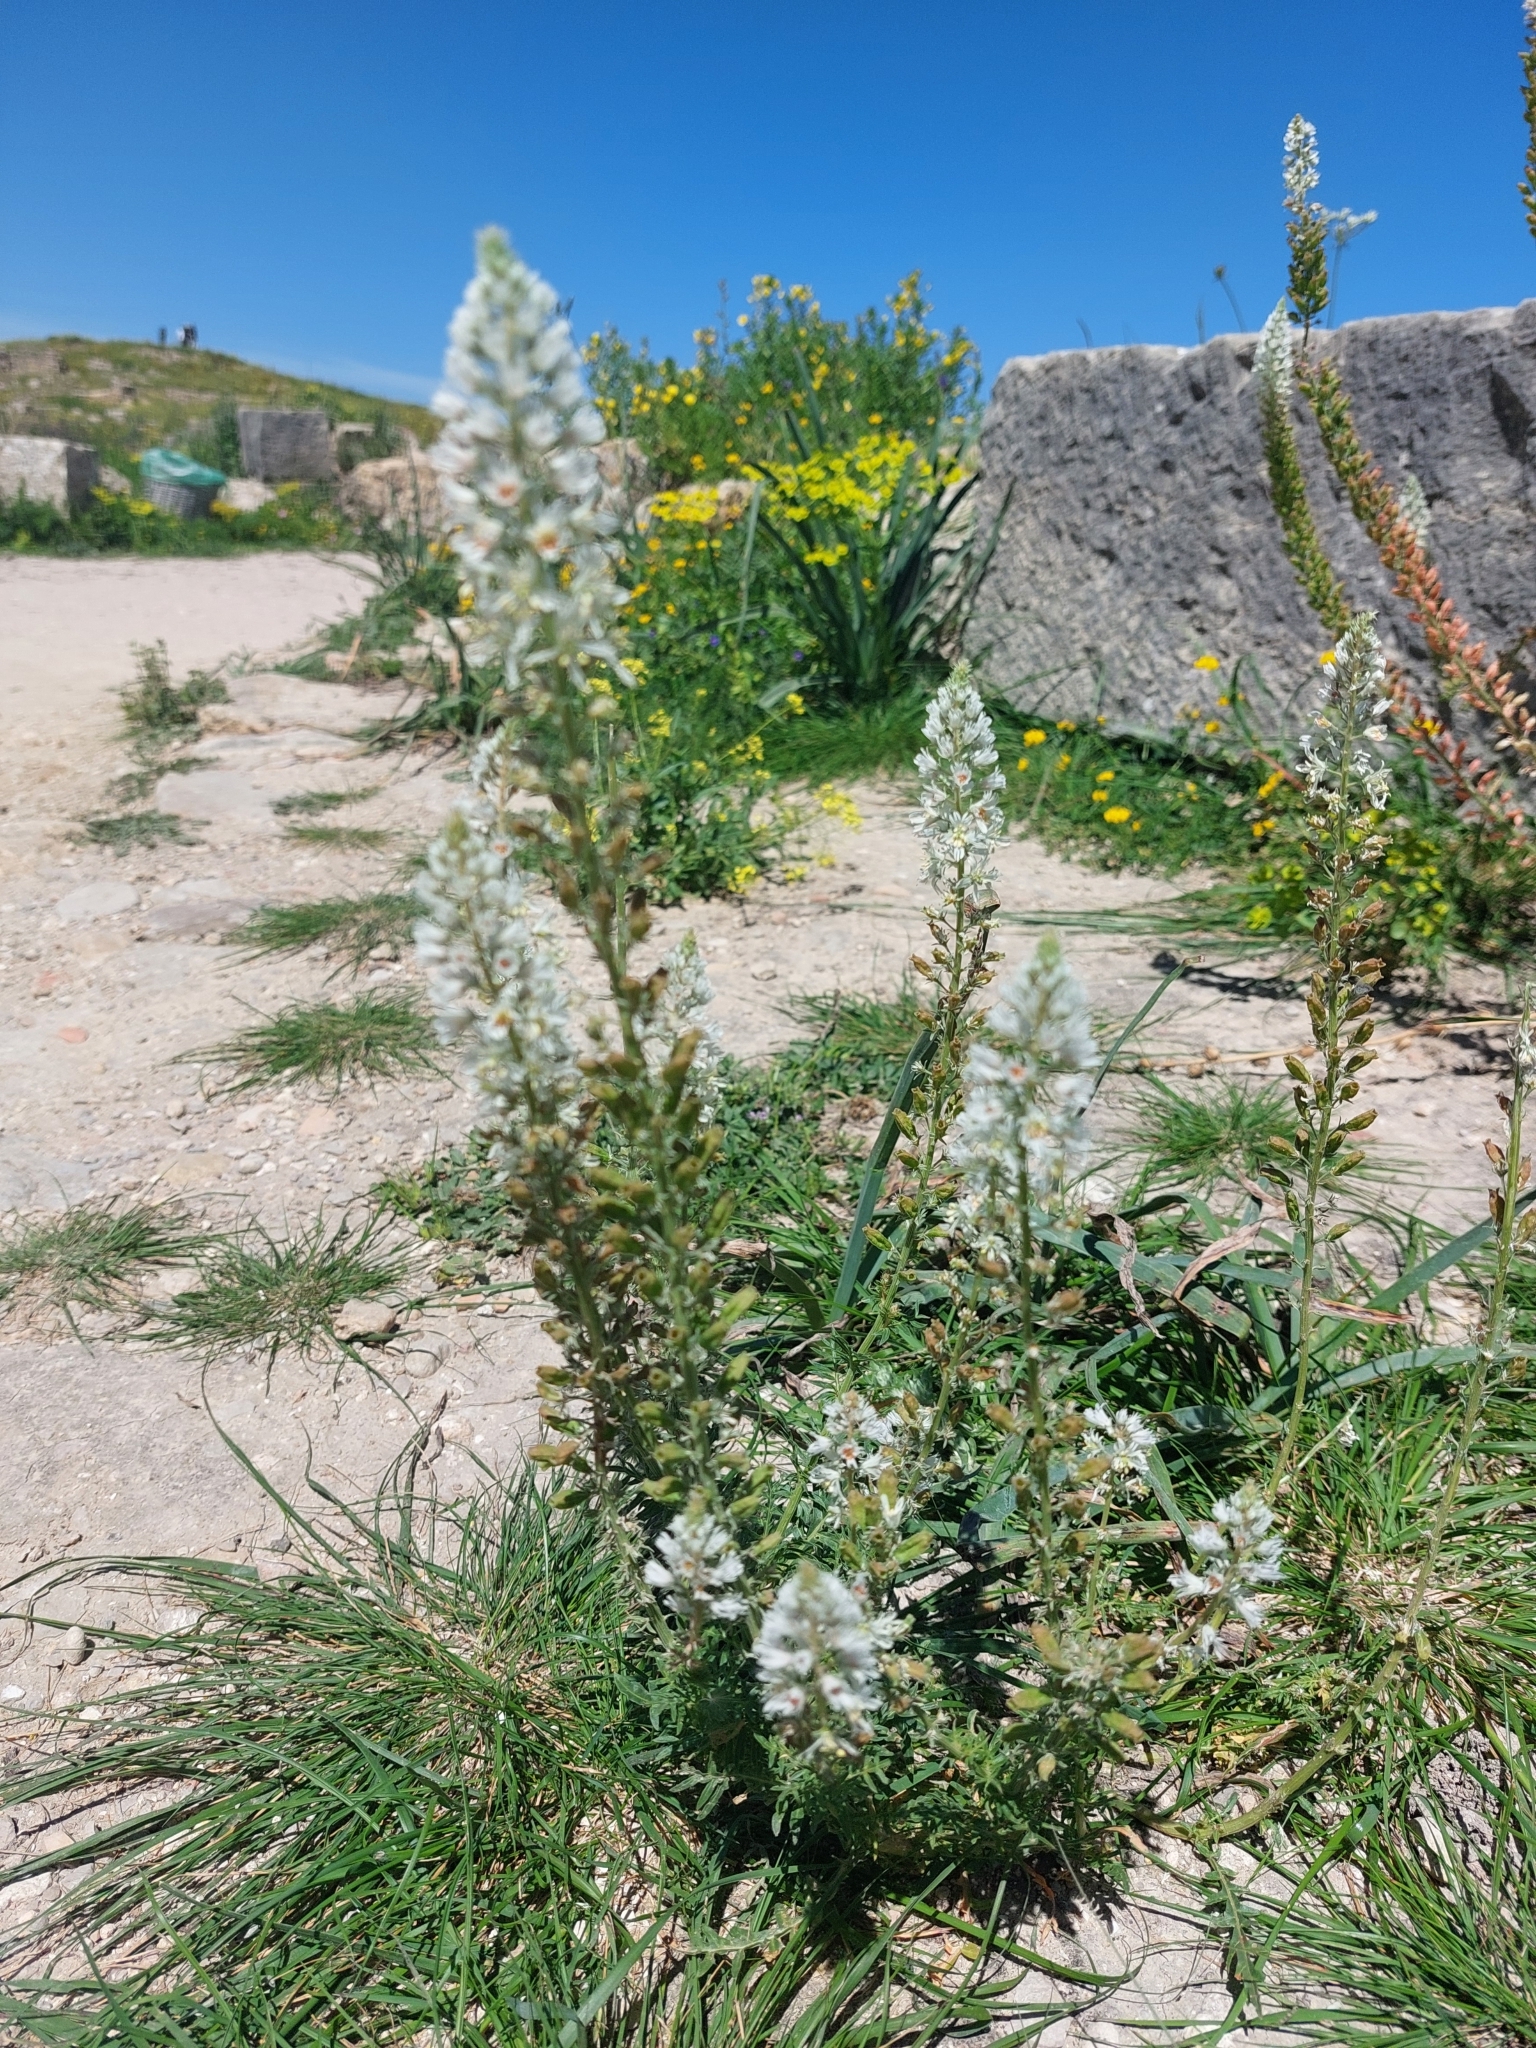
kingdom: Plantae
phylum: Tracheophyta
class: Magnoliopsida
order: Brassicales
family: Resedaceae
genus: Reseda
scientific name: Reseda alba
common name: White mignonette
